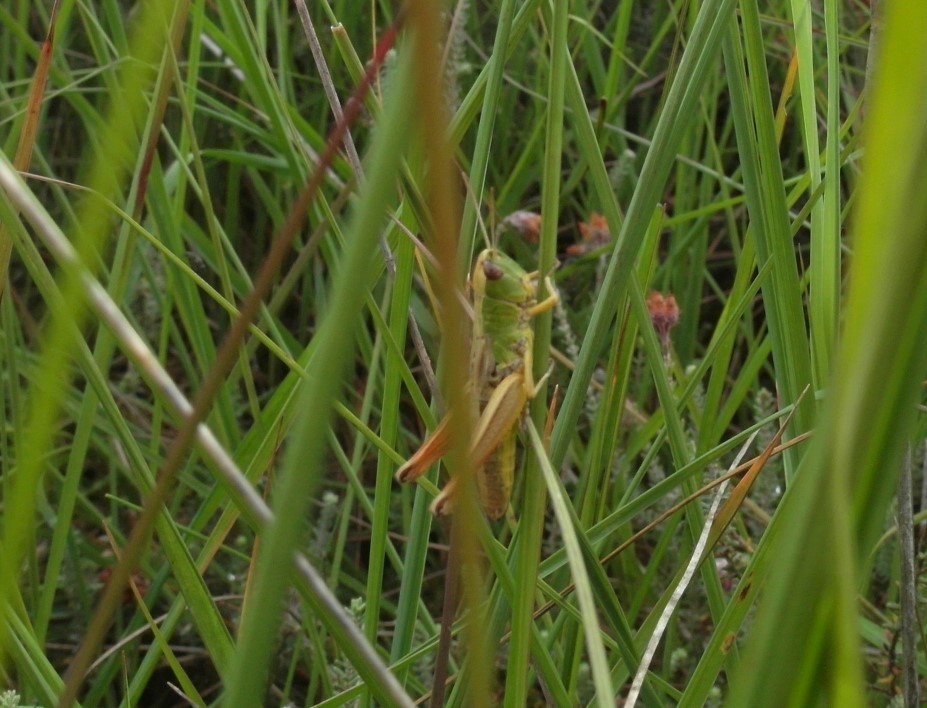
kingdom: Animalia
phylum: Arthropoda
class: Insecta
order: Orthoptera
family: Acrididae
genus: Pseudochorthippus
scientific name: Pseudochorthippus parallelus
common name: Meadow grasshopper
